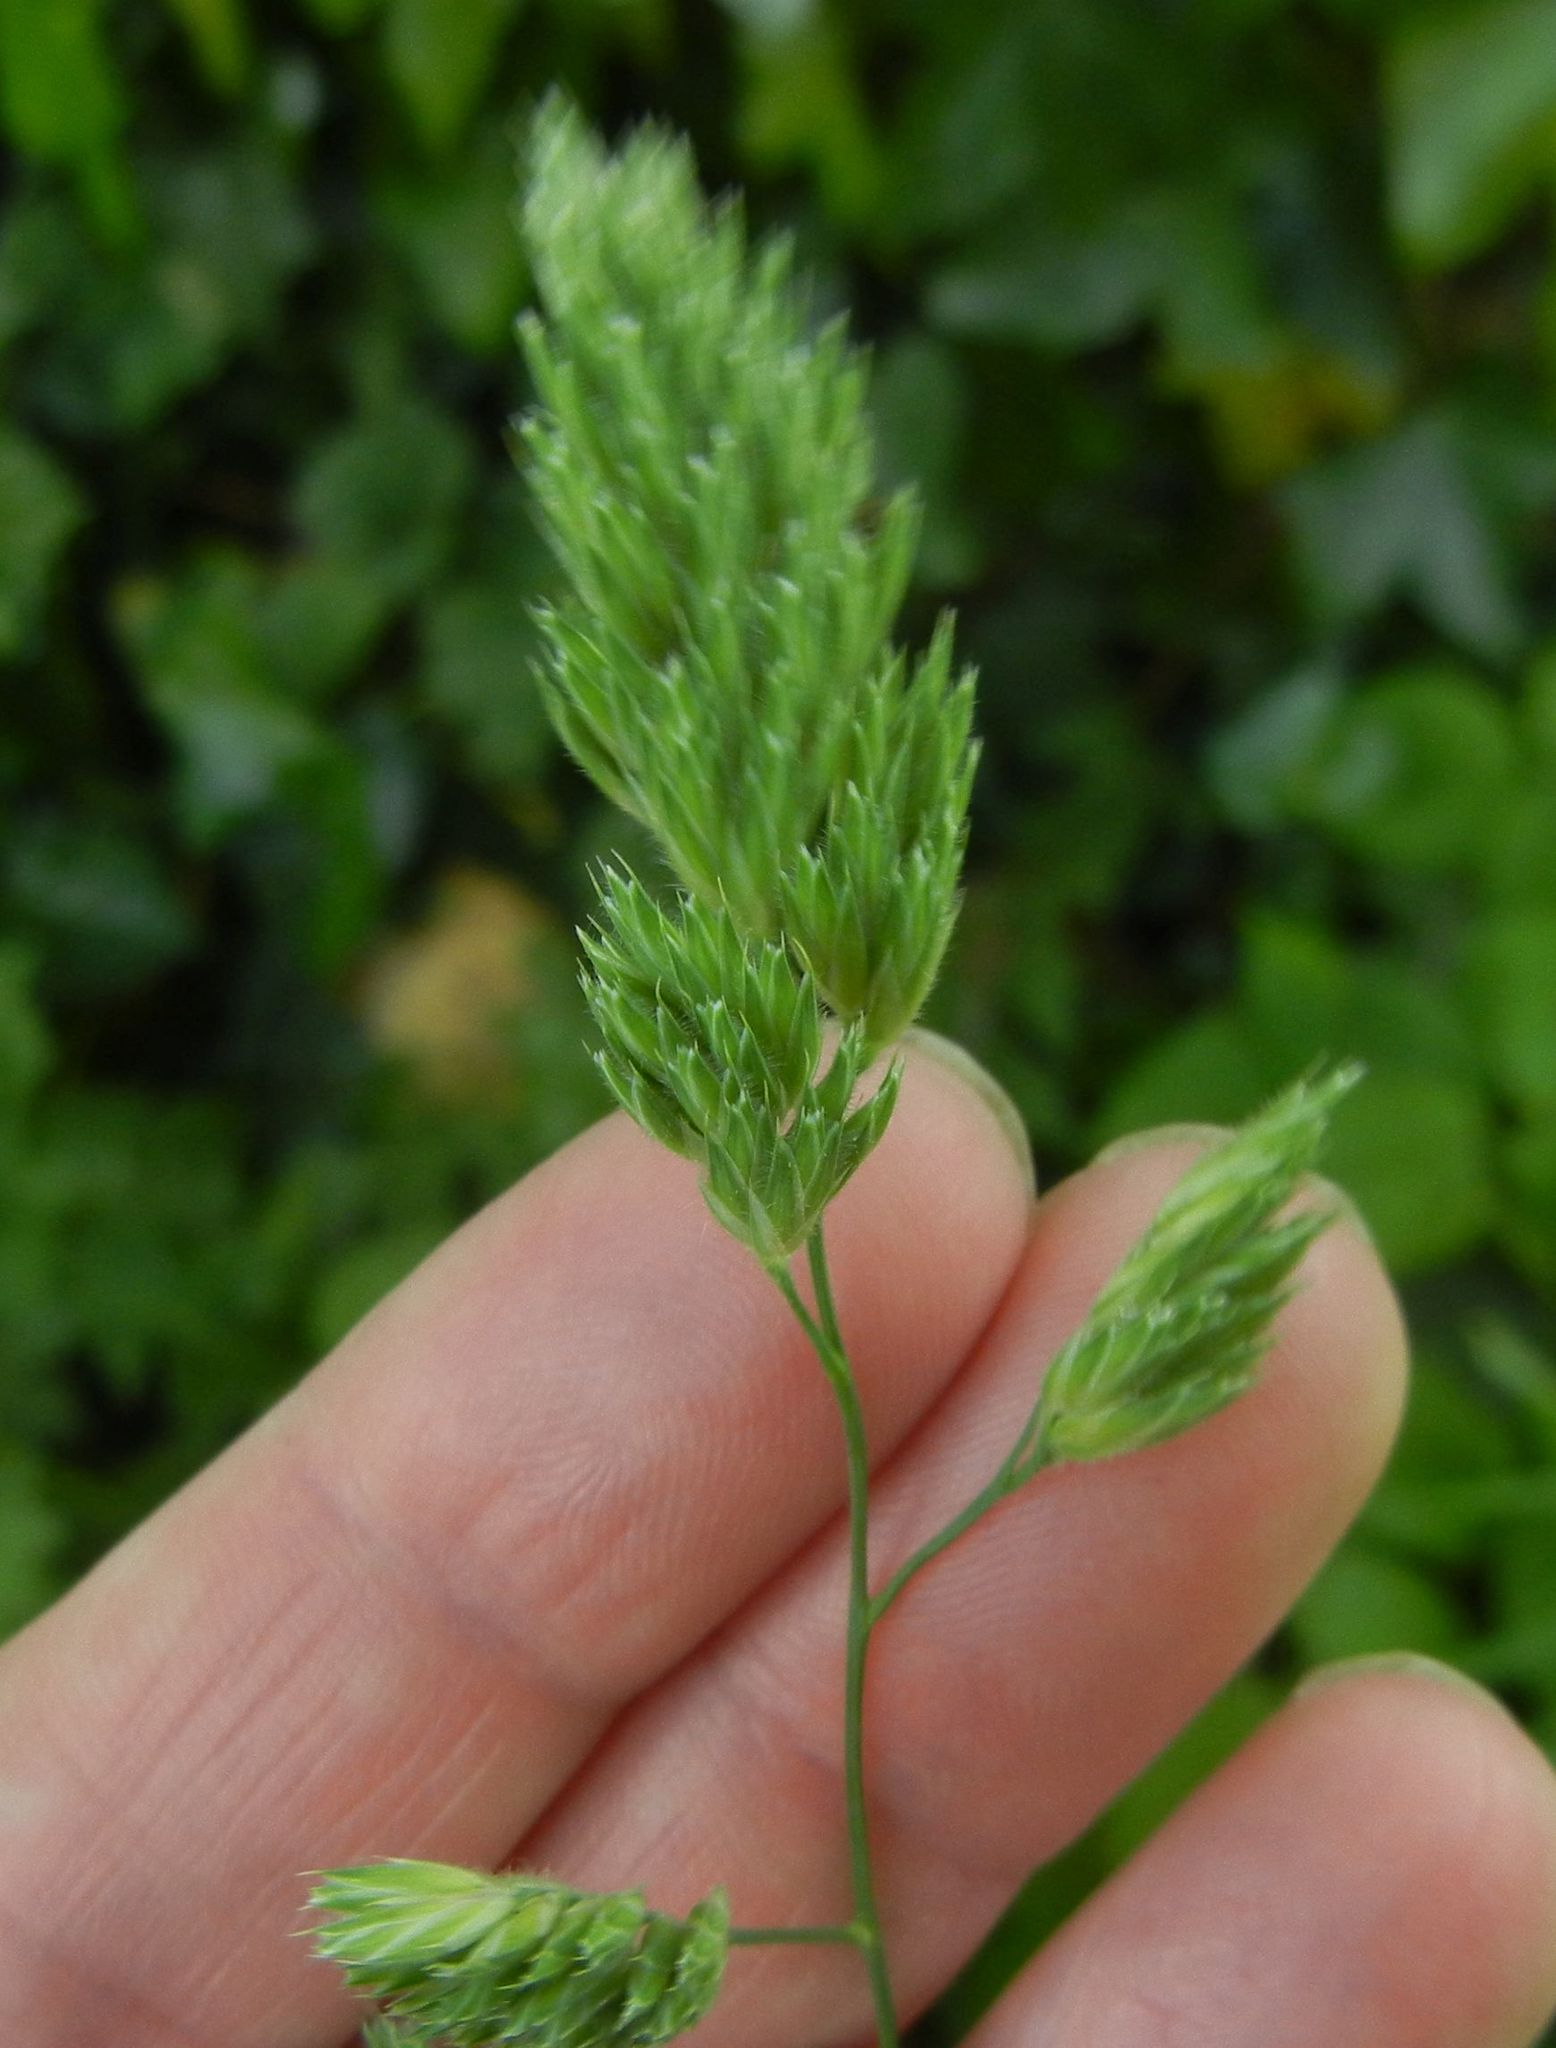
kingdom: Plantae
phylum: Tracheophyta
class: Liliopsida
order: Poales
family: Poaceae
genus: Dactylis
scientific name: Dactylis glomerata
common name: Orchardgrass
